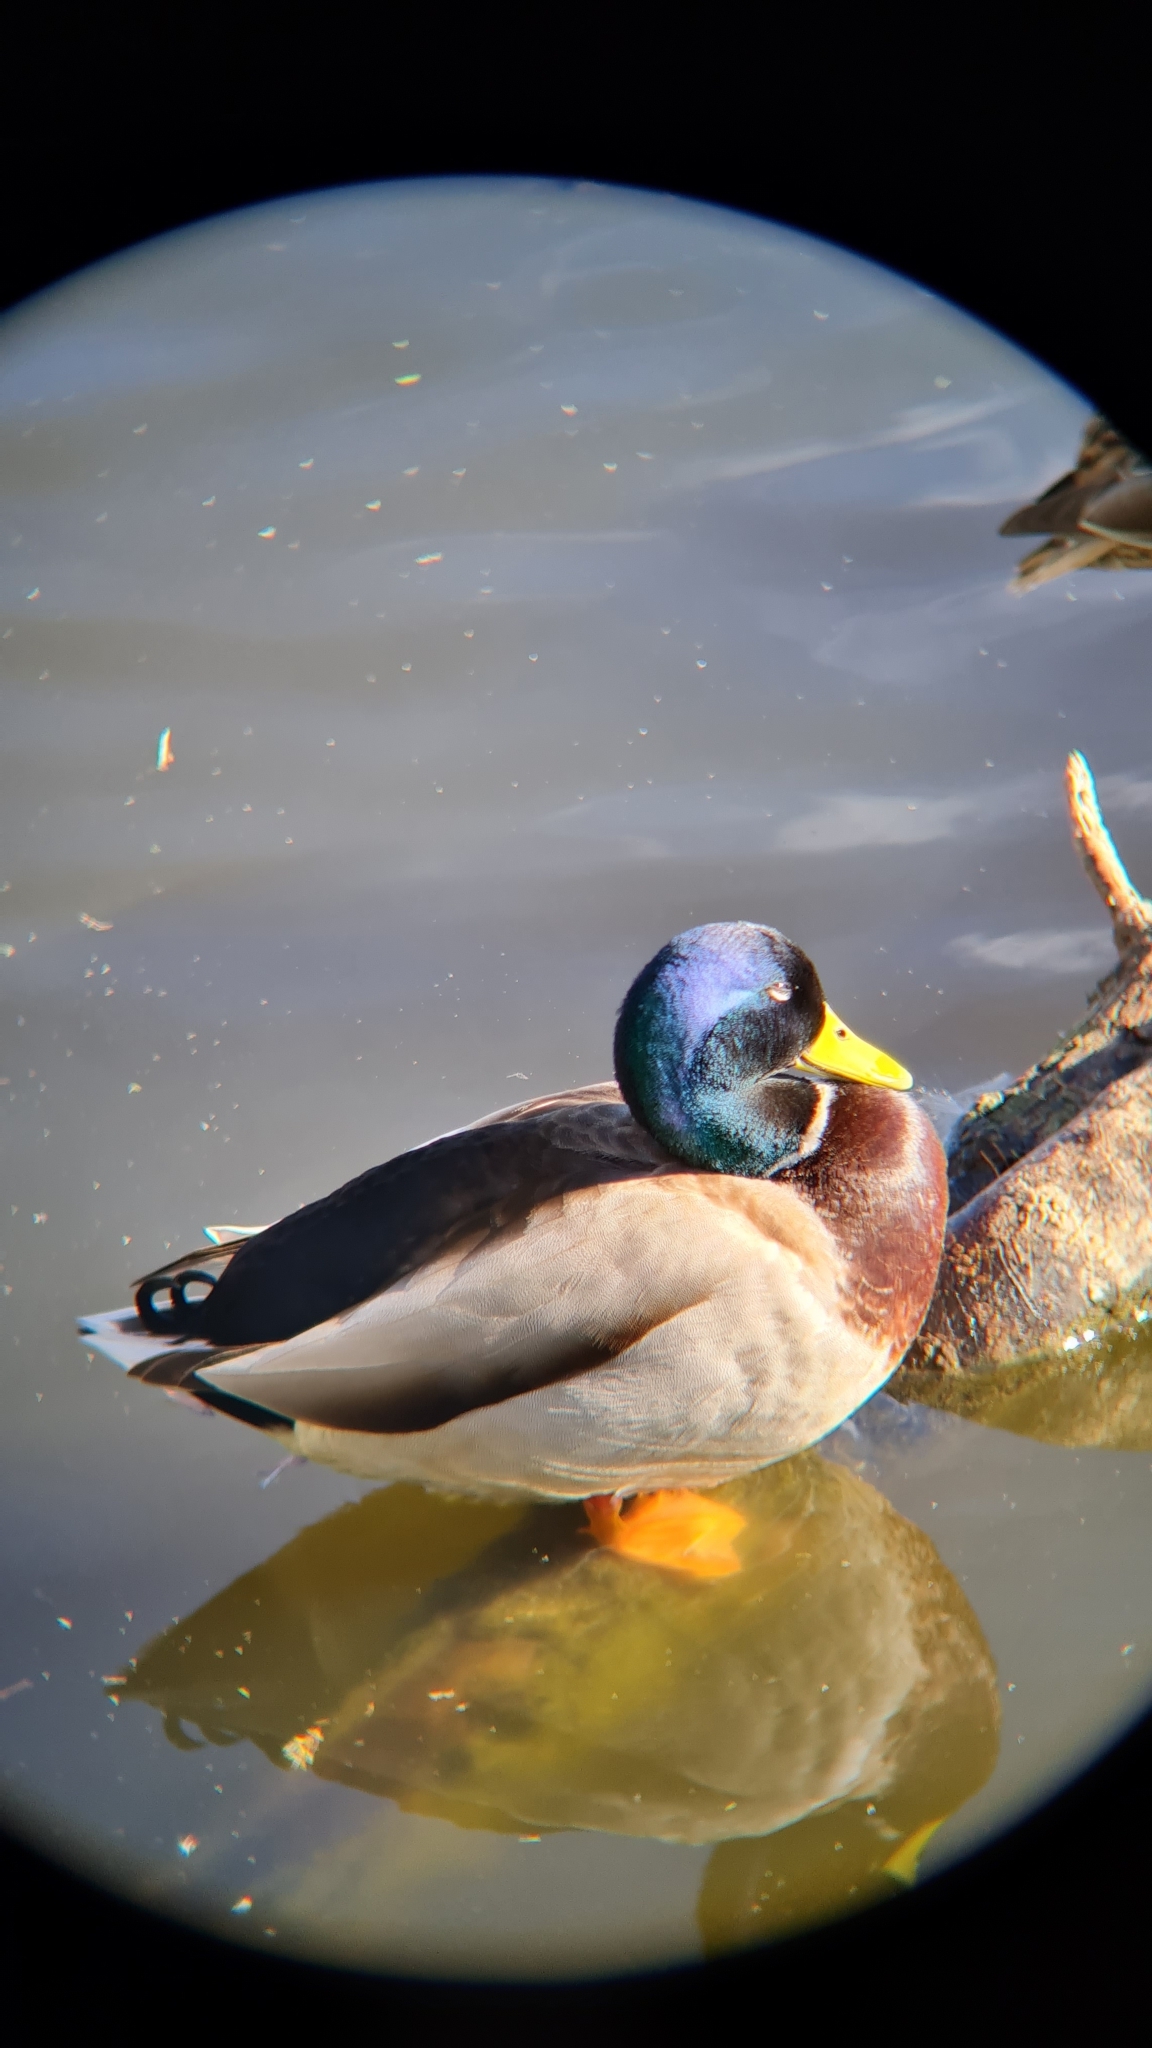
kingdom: Animalia
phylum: Chordata
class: Aves
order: Anseriformes
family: Anatidae
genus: Anas
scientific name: Anas platyrhynchos
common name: Mallard
